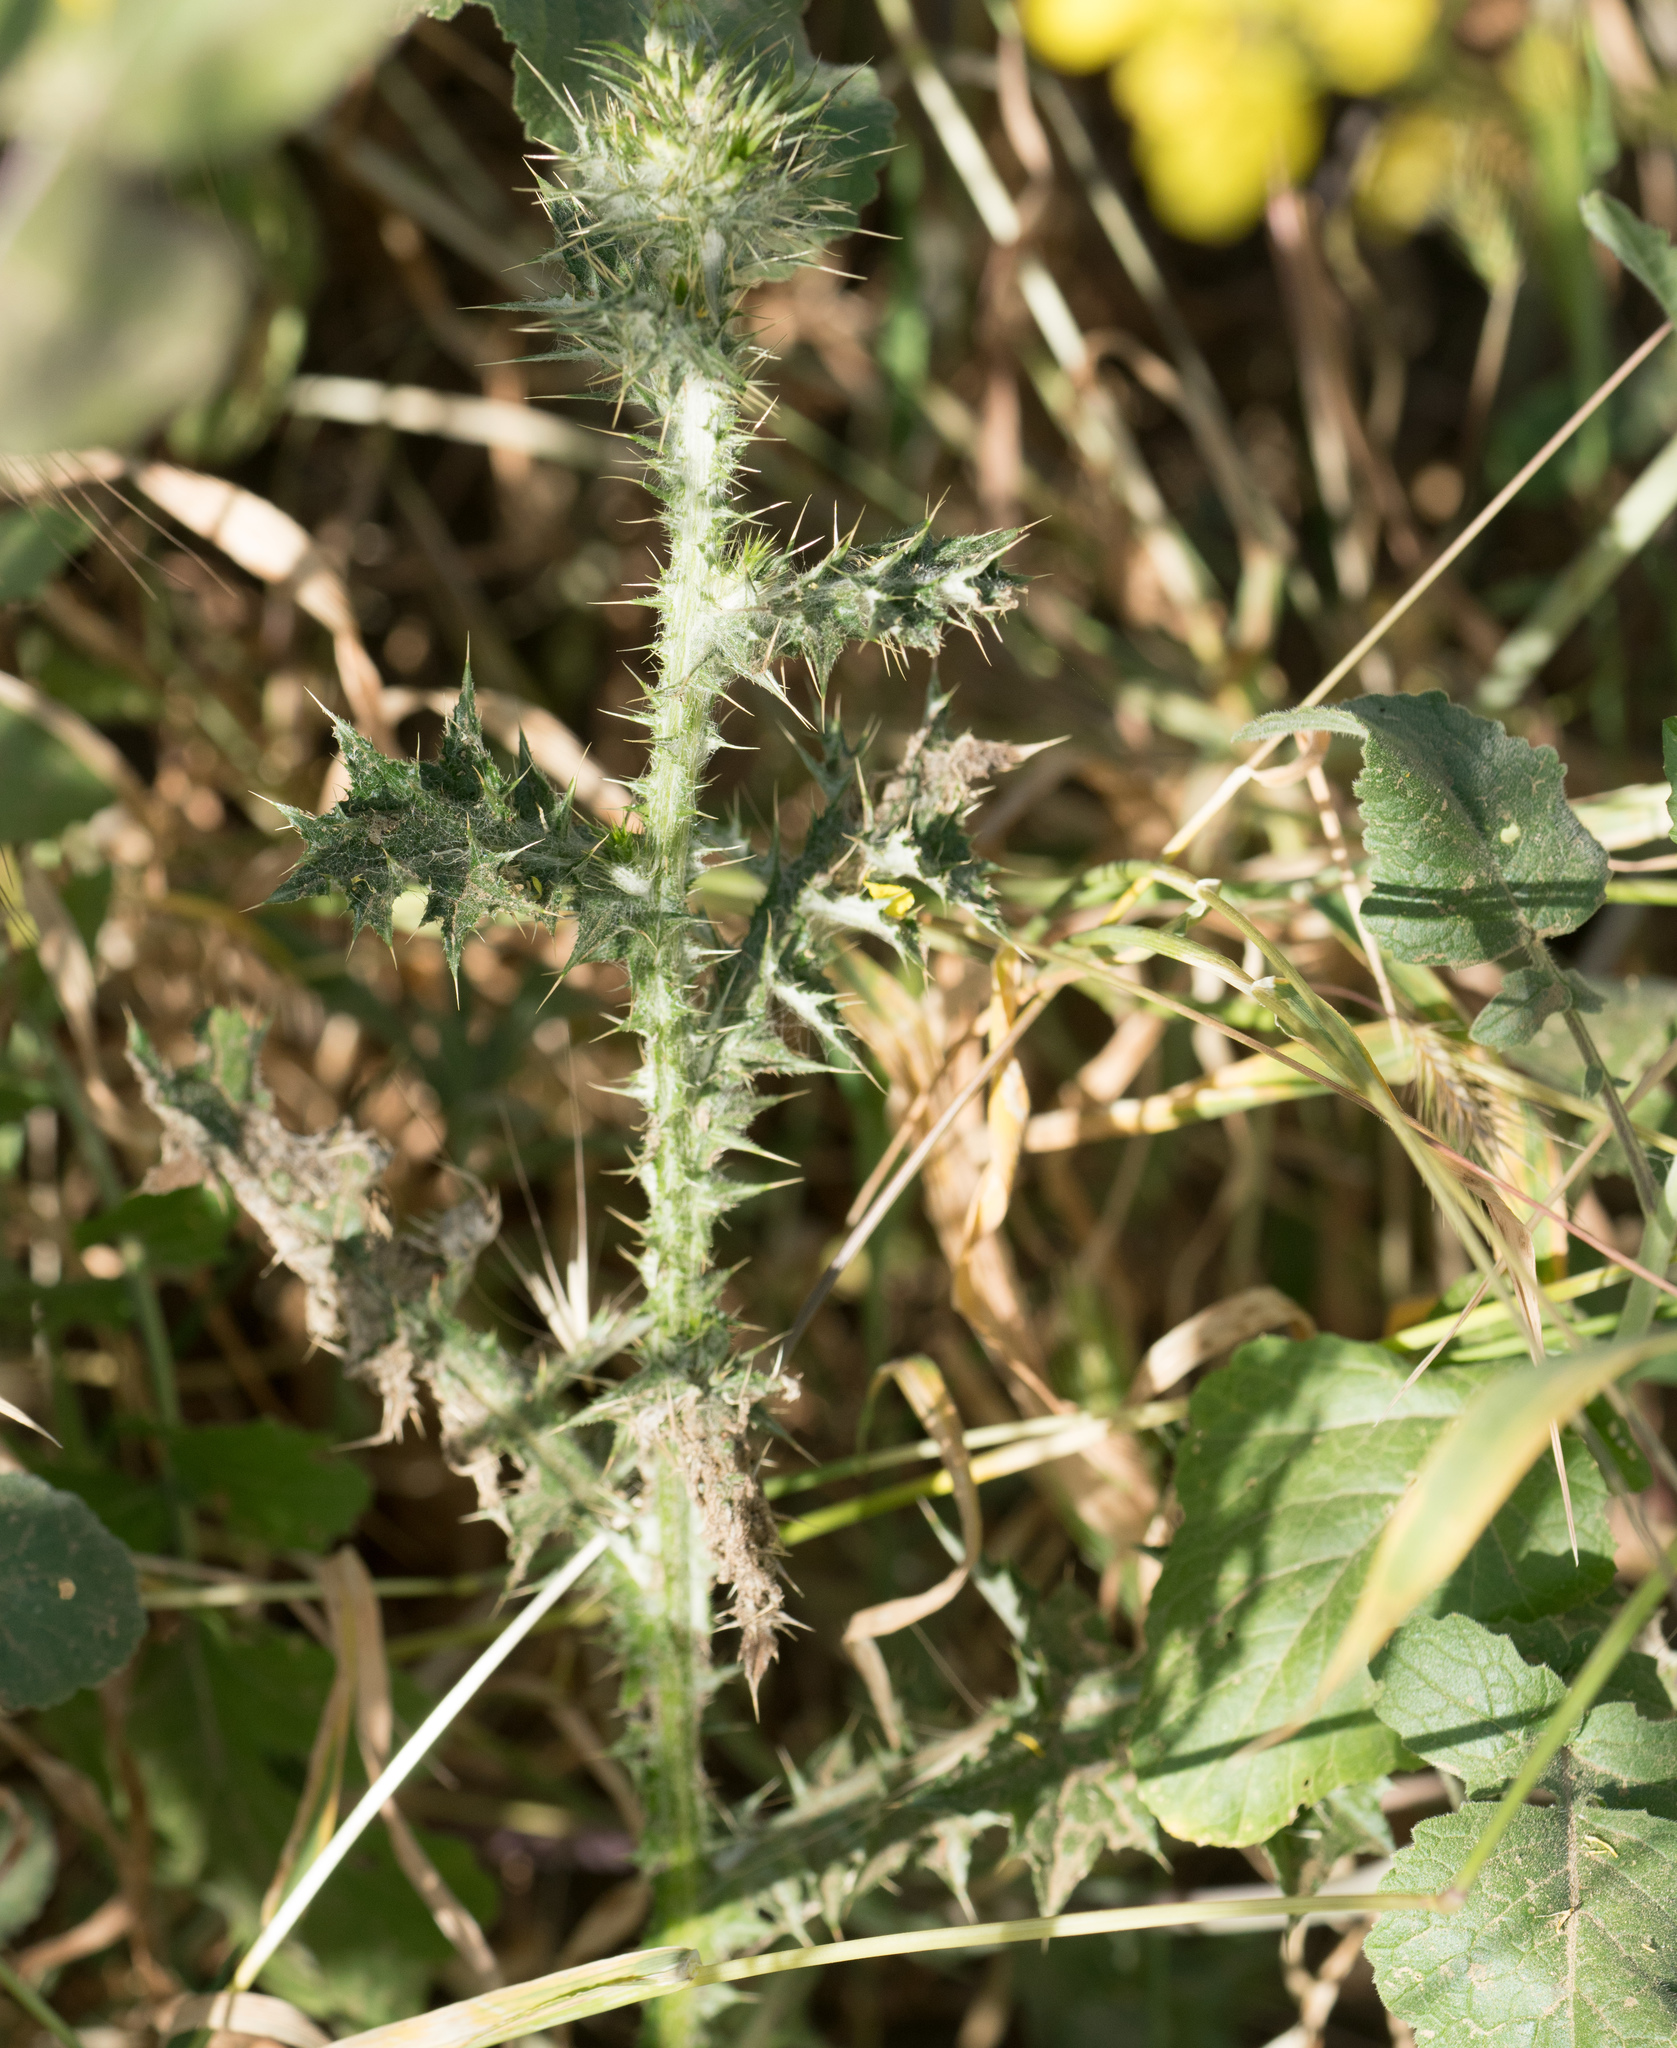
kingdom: Plantae
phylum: Tracheophyta
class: Magnoliopsida
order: Asterales
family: Asteraceae
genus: Carduus
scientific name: Carduus pycnocephalus
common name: Plymouth thistle
